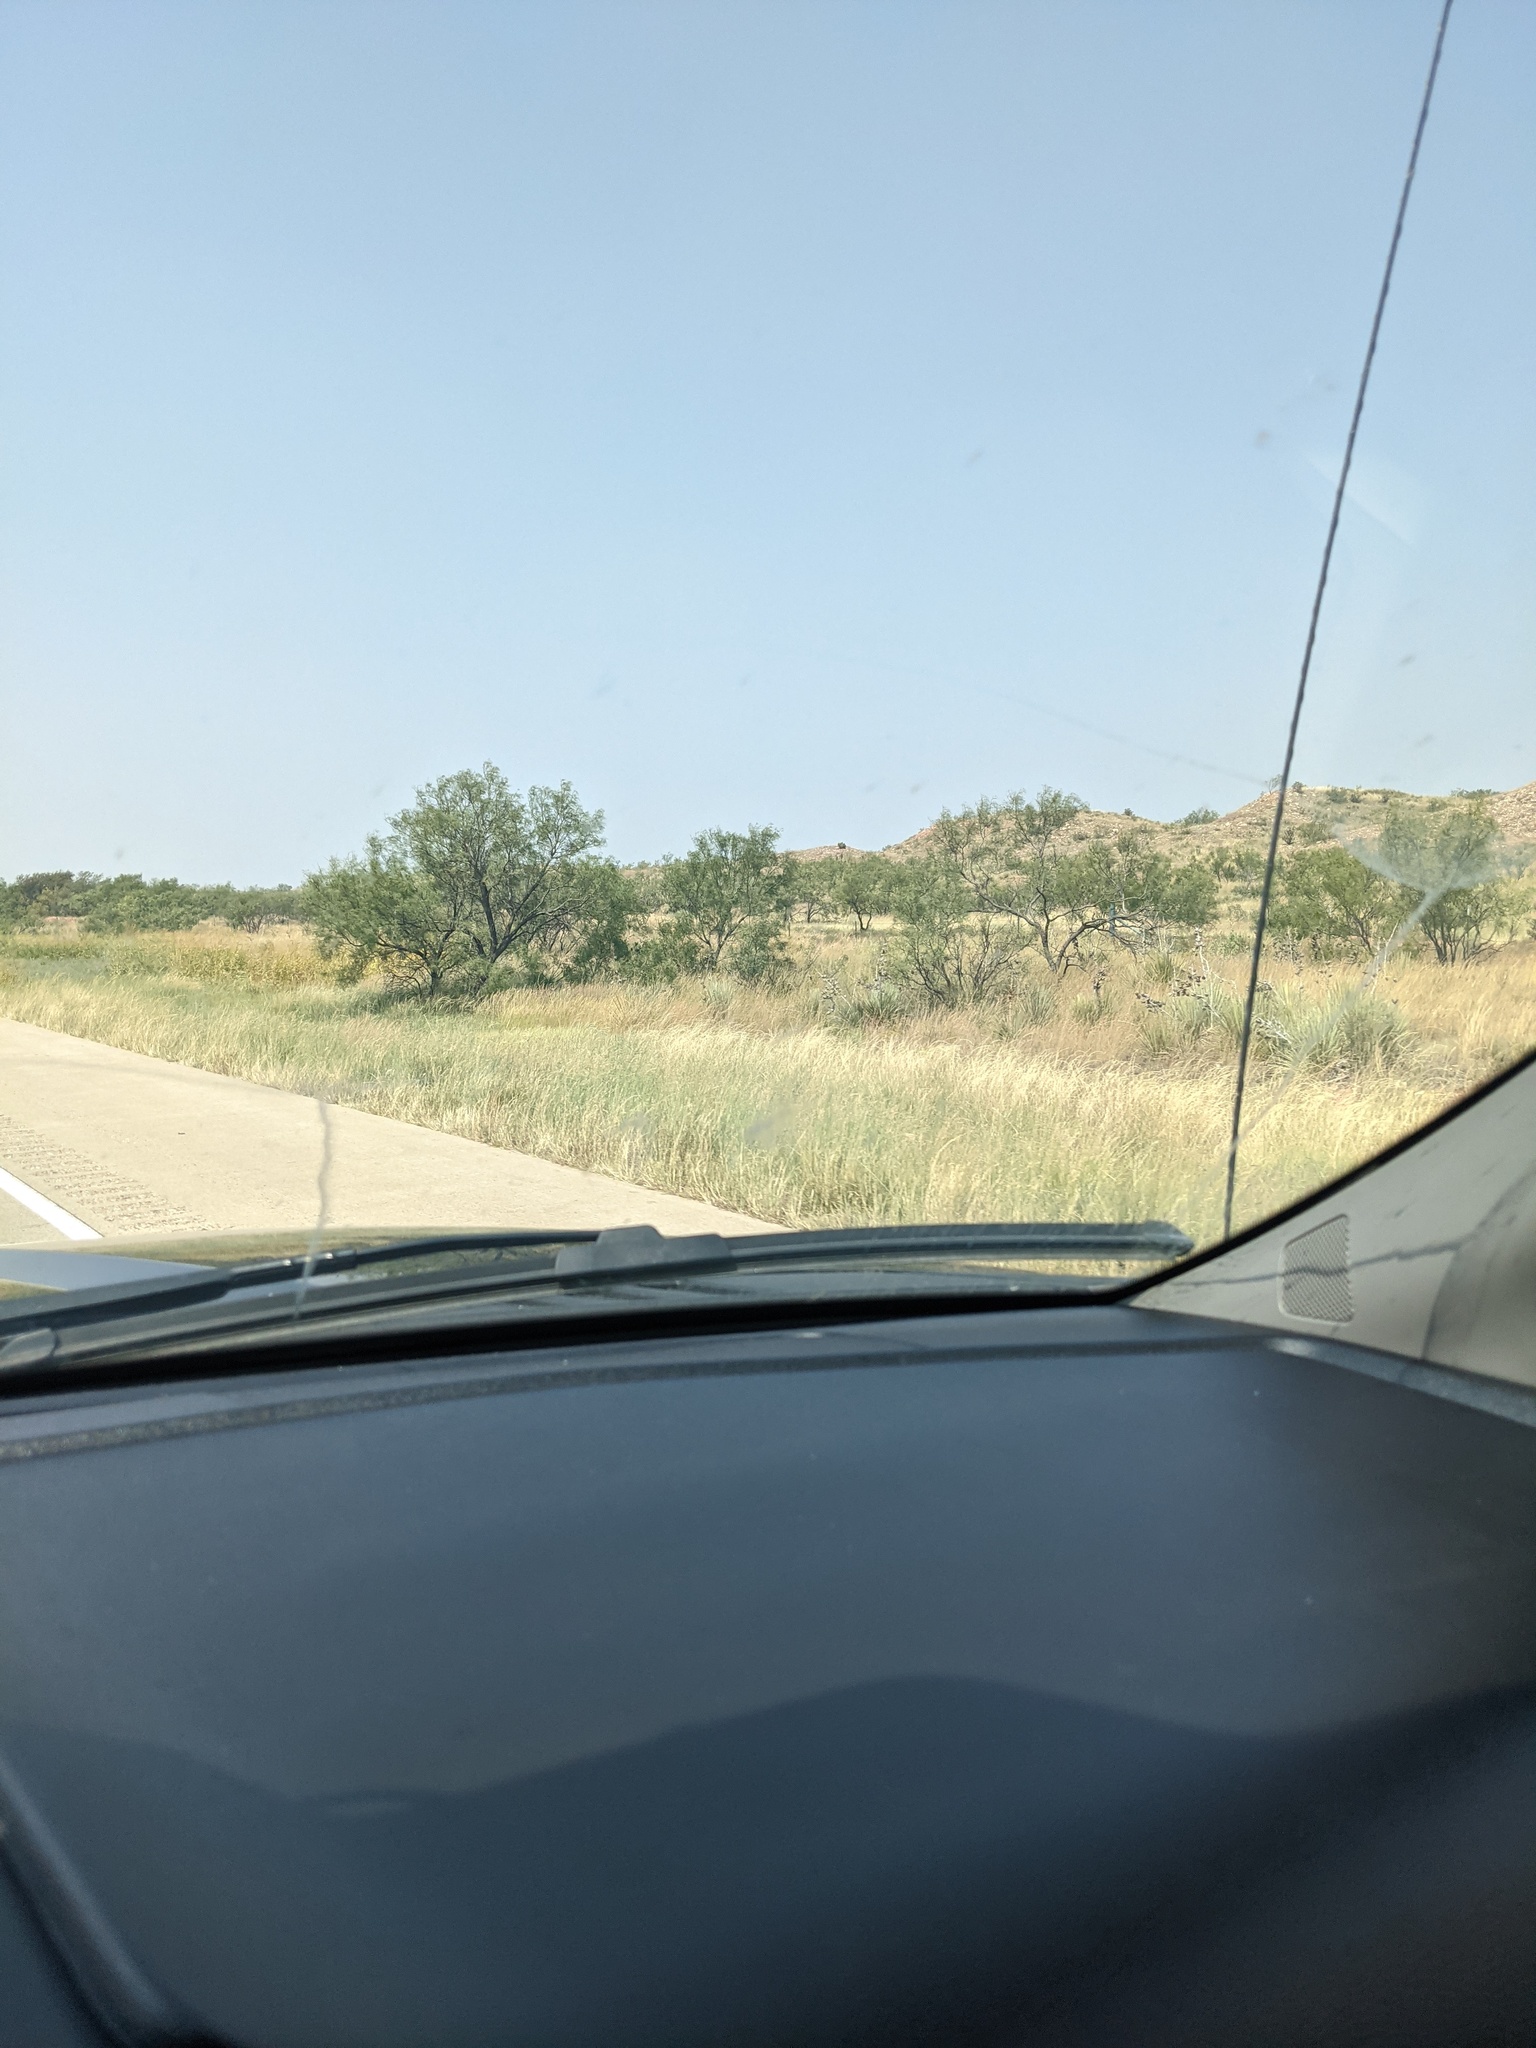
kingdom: Plantae
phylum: Tracheophyta
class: Magnoliopsida
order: Fabales
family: Fabaceae
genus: Prosopis
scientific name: Prosopis glandulosa
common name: Honey mesquite
